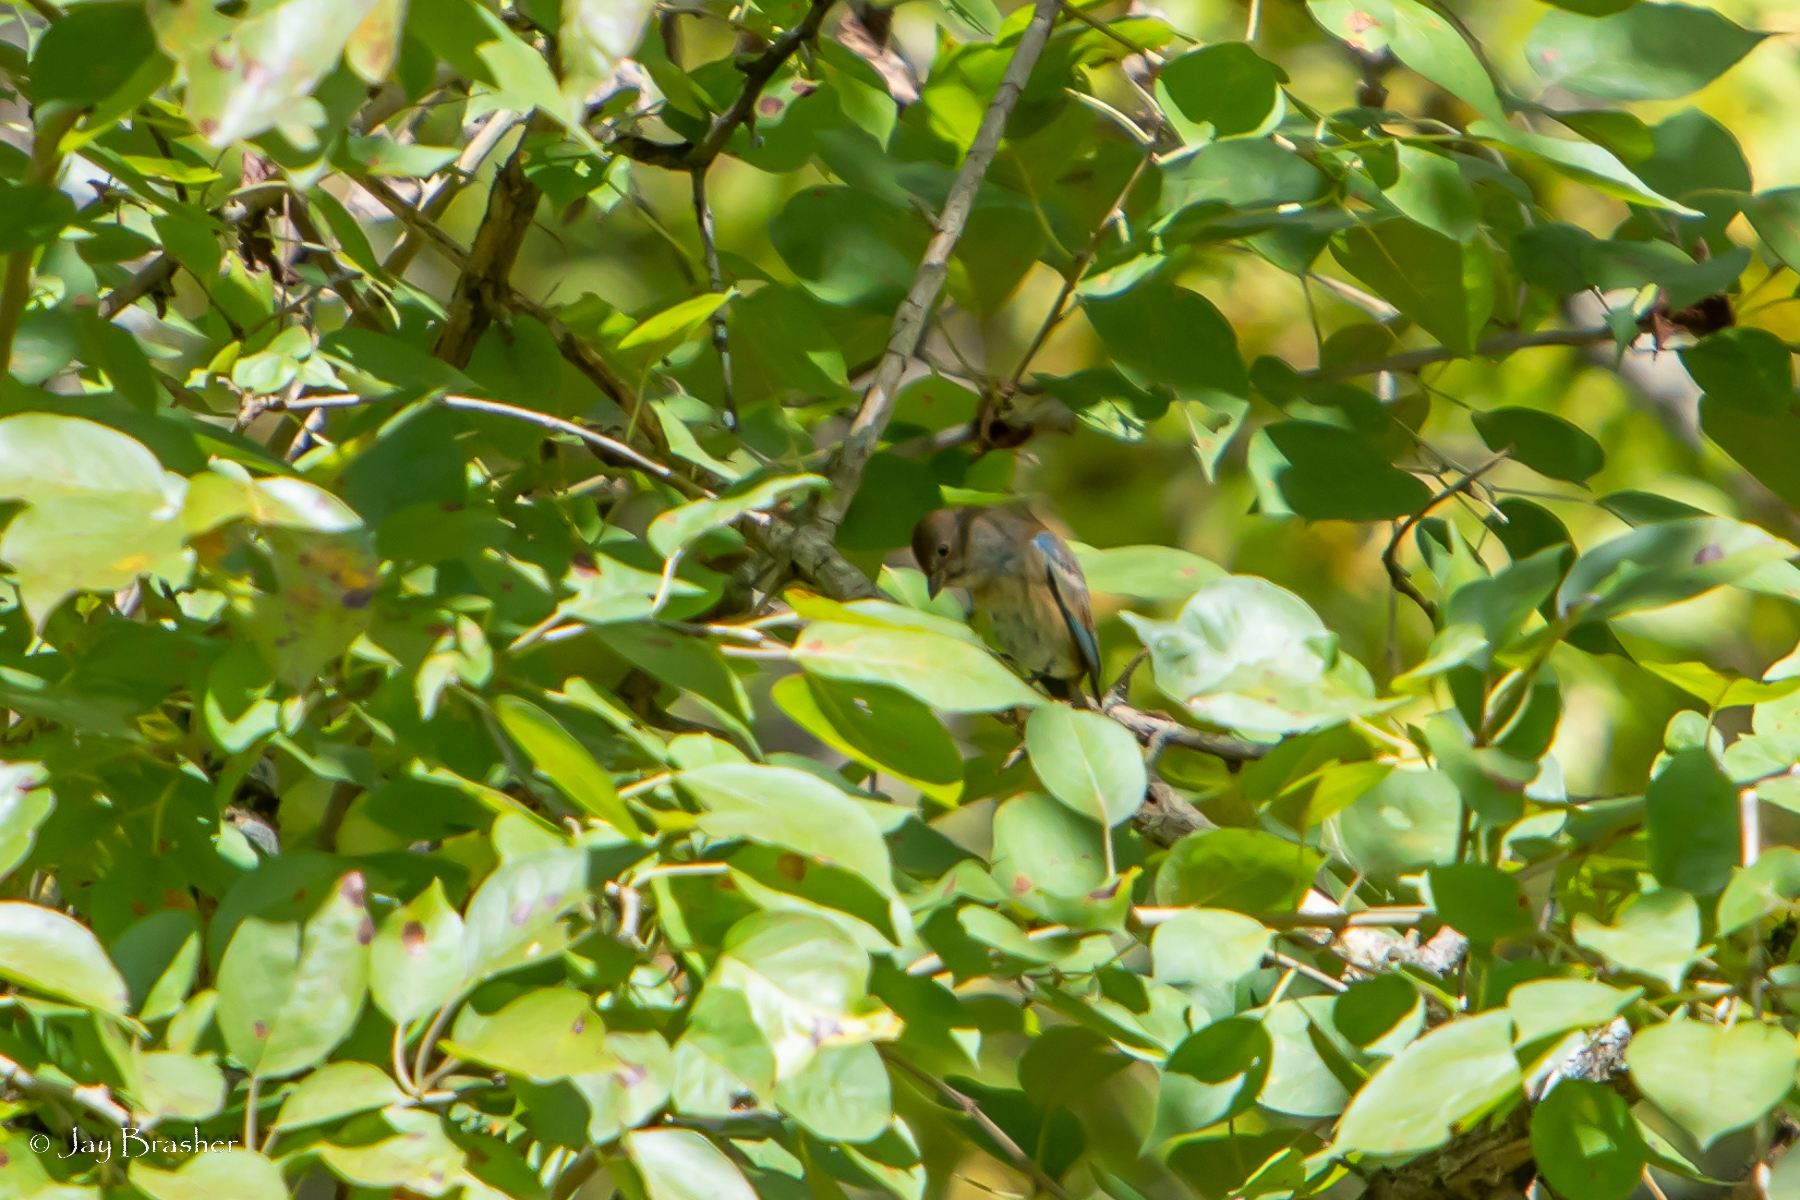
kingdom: Animalia
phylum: Chordata
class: Aves
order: Passeriformes
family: Cardinalidae
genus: Passerina
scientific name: Passerina cyanea
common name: Indigo bunting
